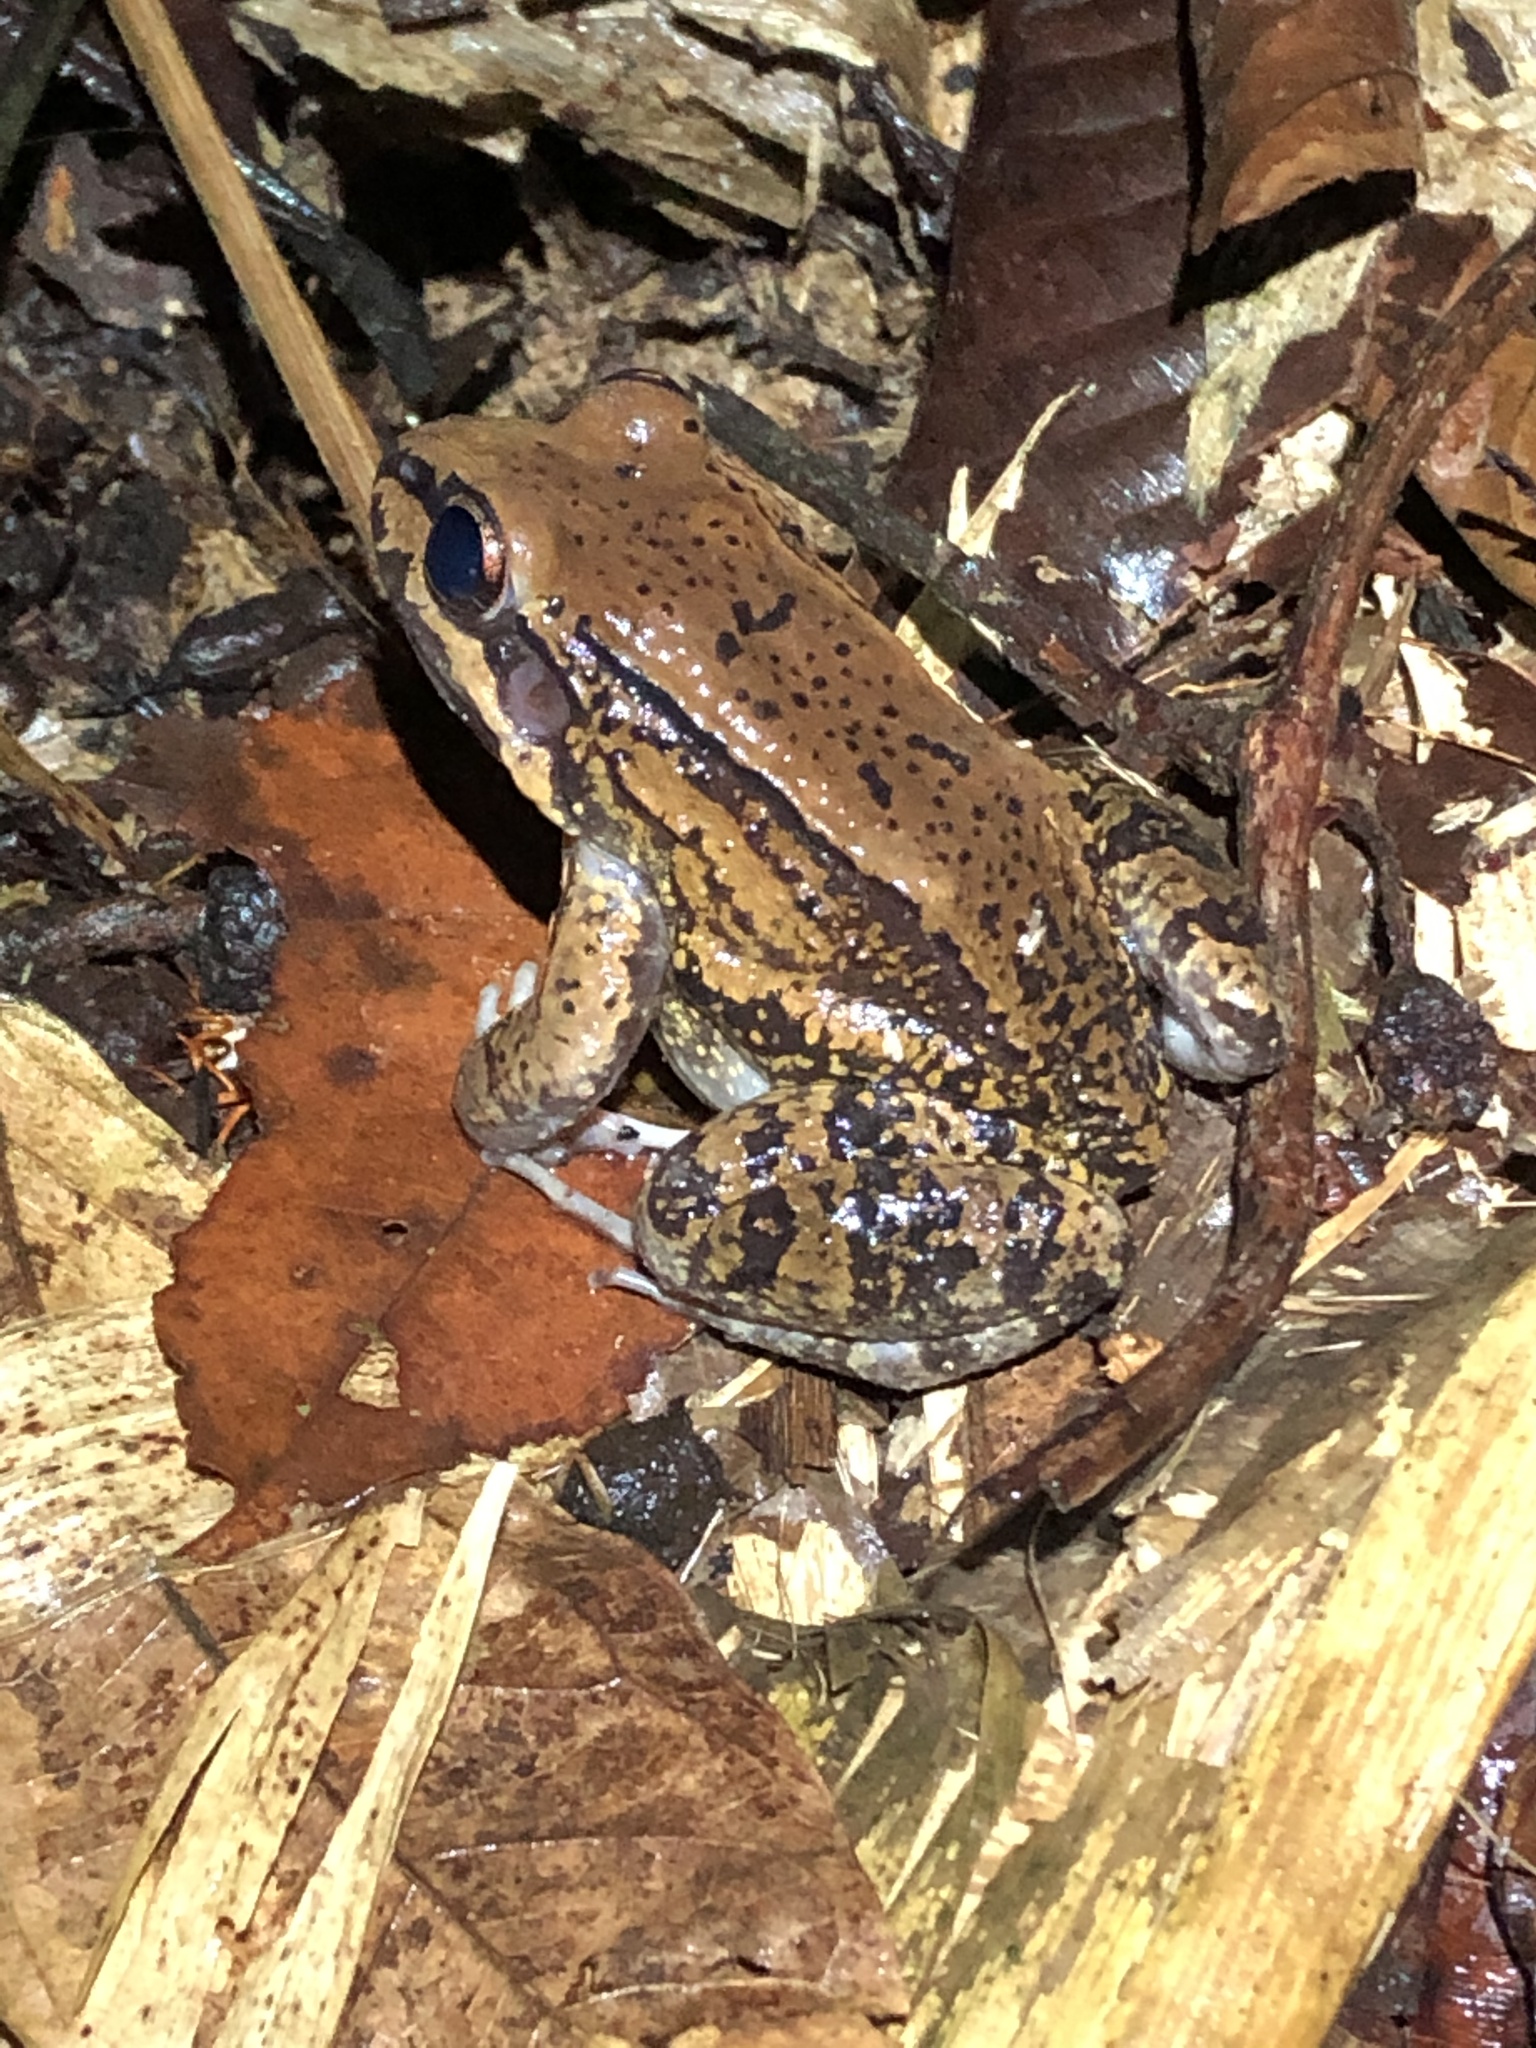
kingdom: Animalia
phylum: Chordata
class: Amphibia
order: Anura
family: Leptodactylidae
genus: Leptodactylus
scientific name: Leptodactylus rhodonotus
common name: Peru white-lipped frog
